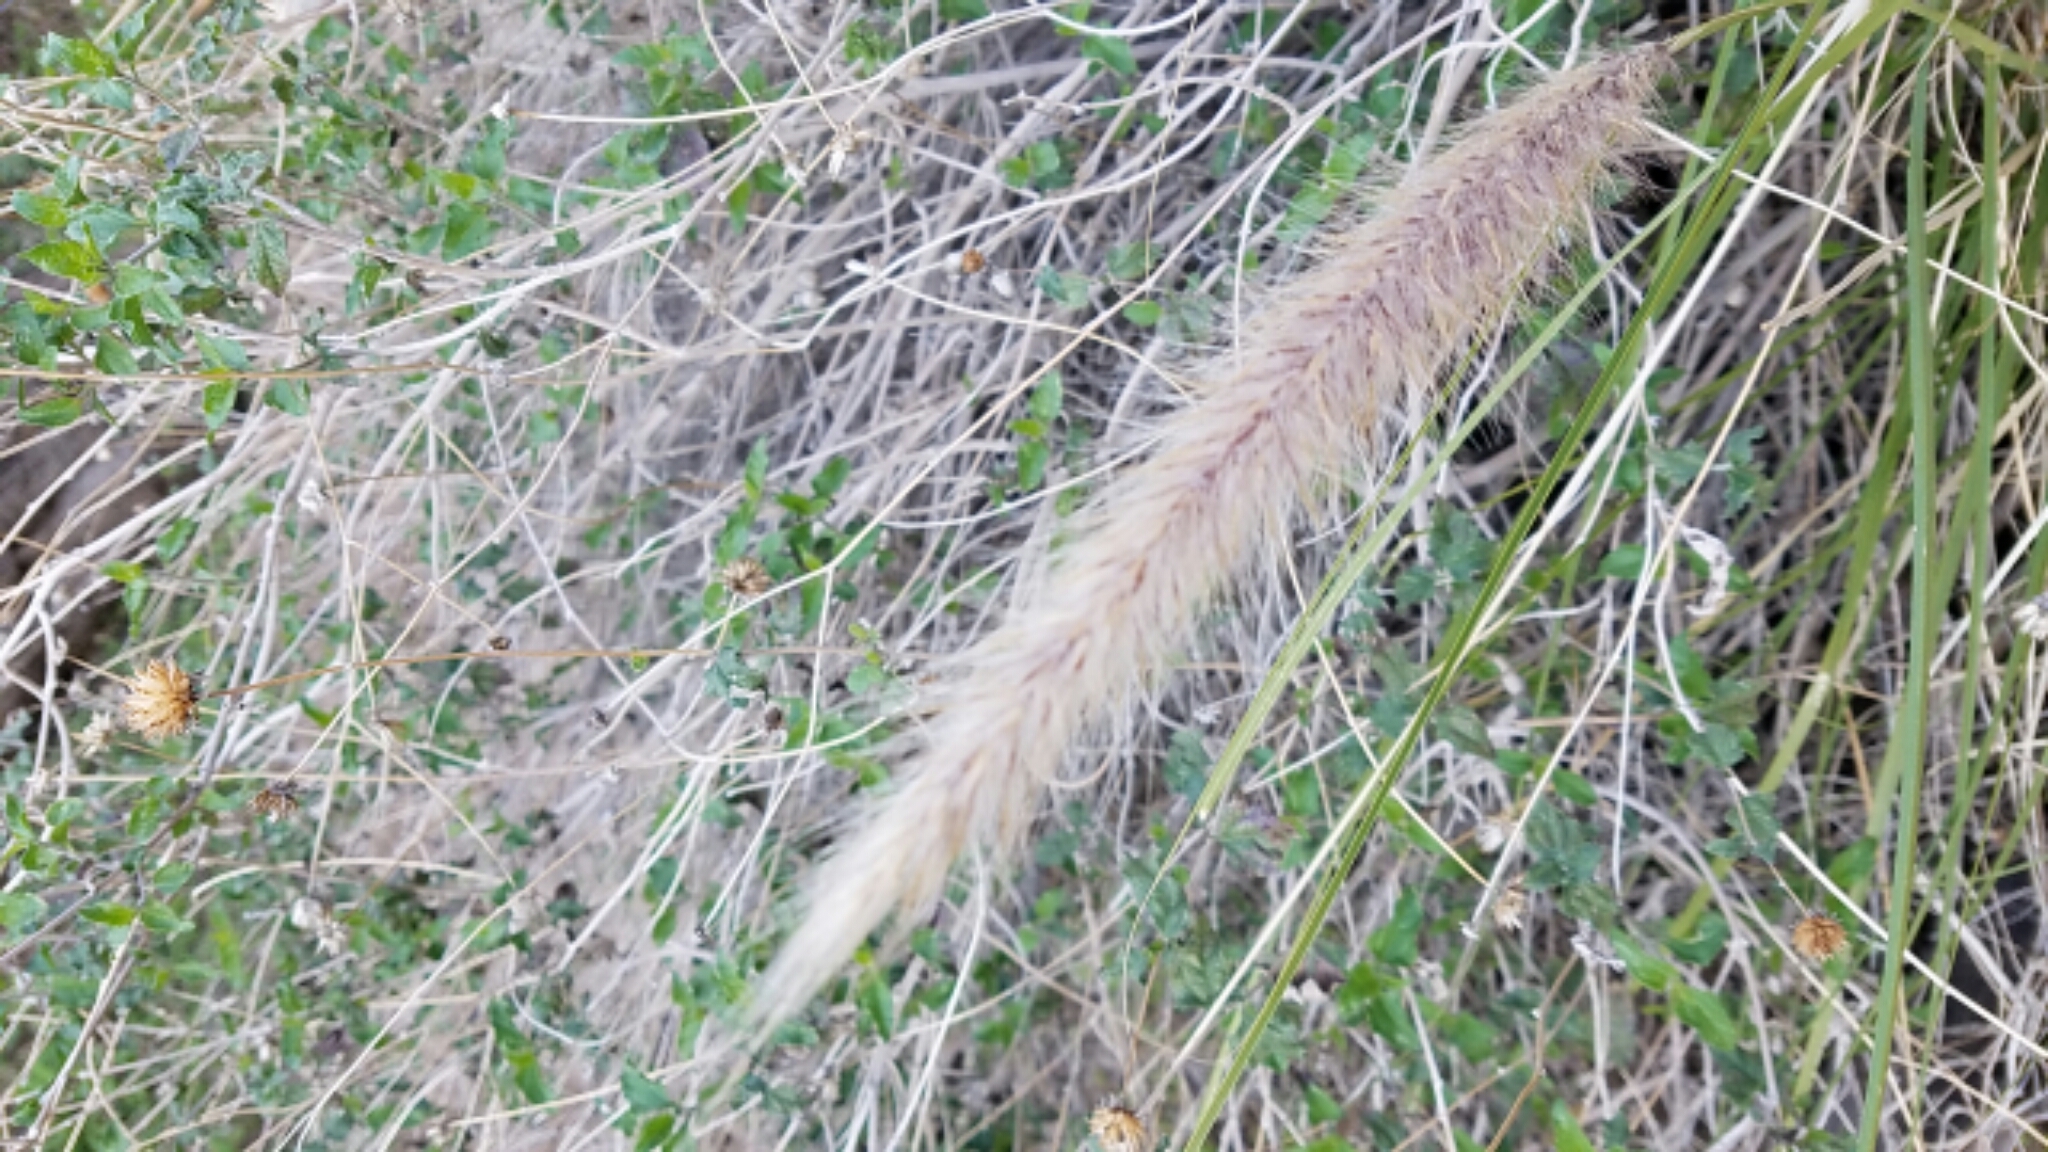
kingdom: Plantae
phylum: Tracheophyta
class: Liliopsida
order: Poales
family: Poaceae
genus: Cenchrus
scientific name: Cenchrus setaceus
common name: Crimson fountaingrass
